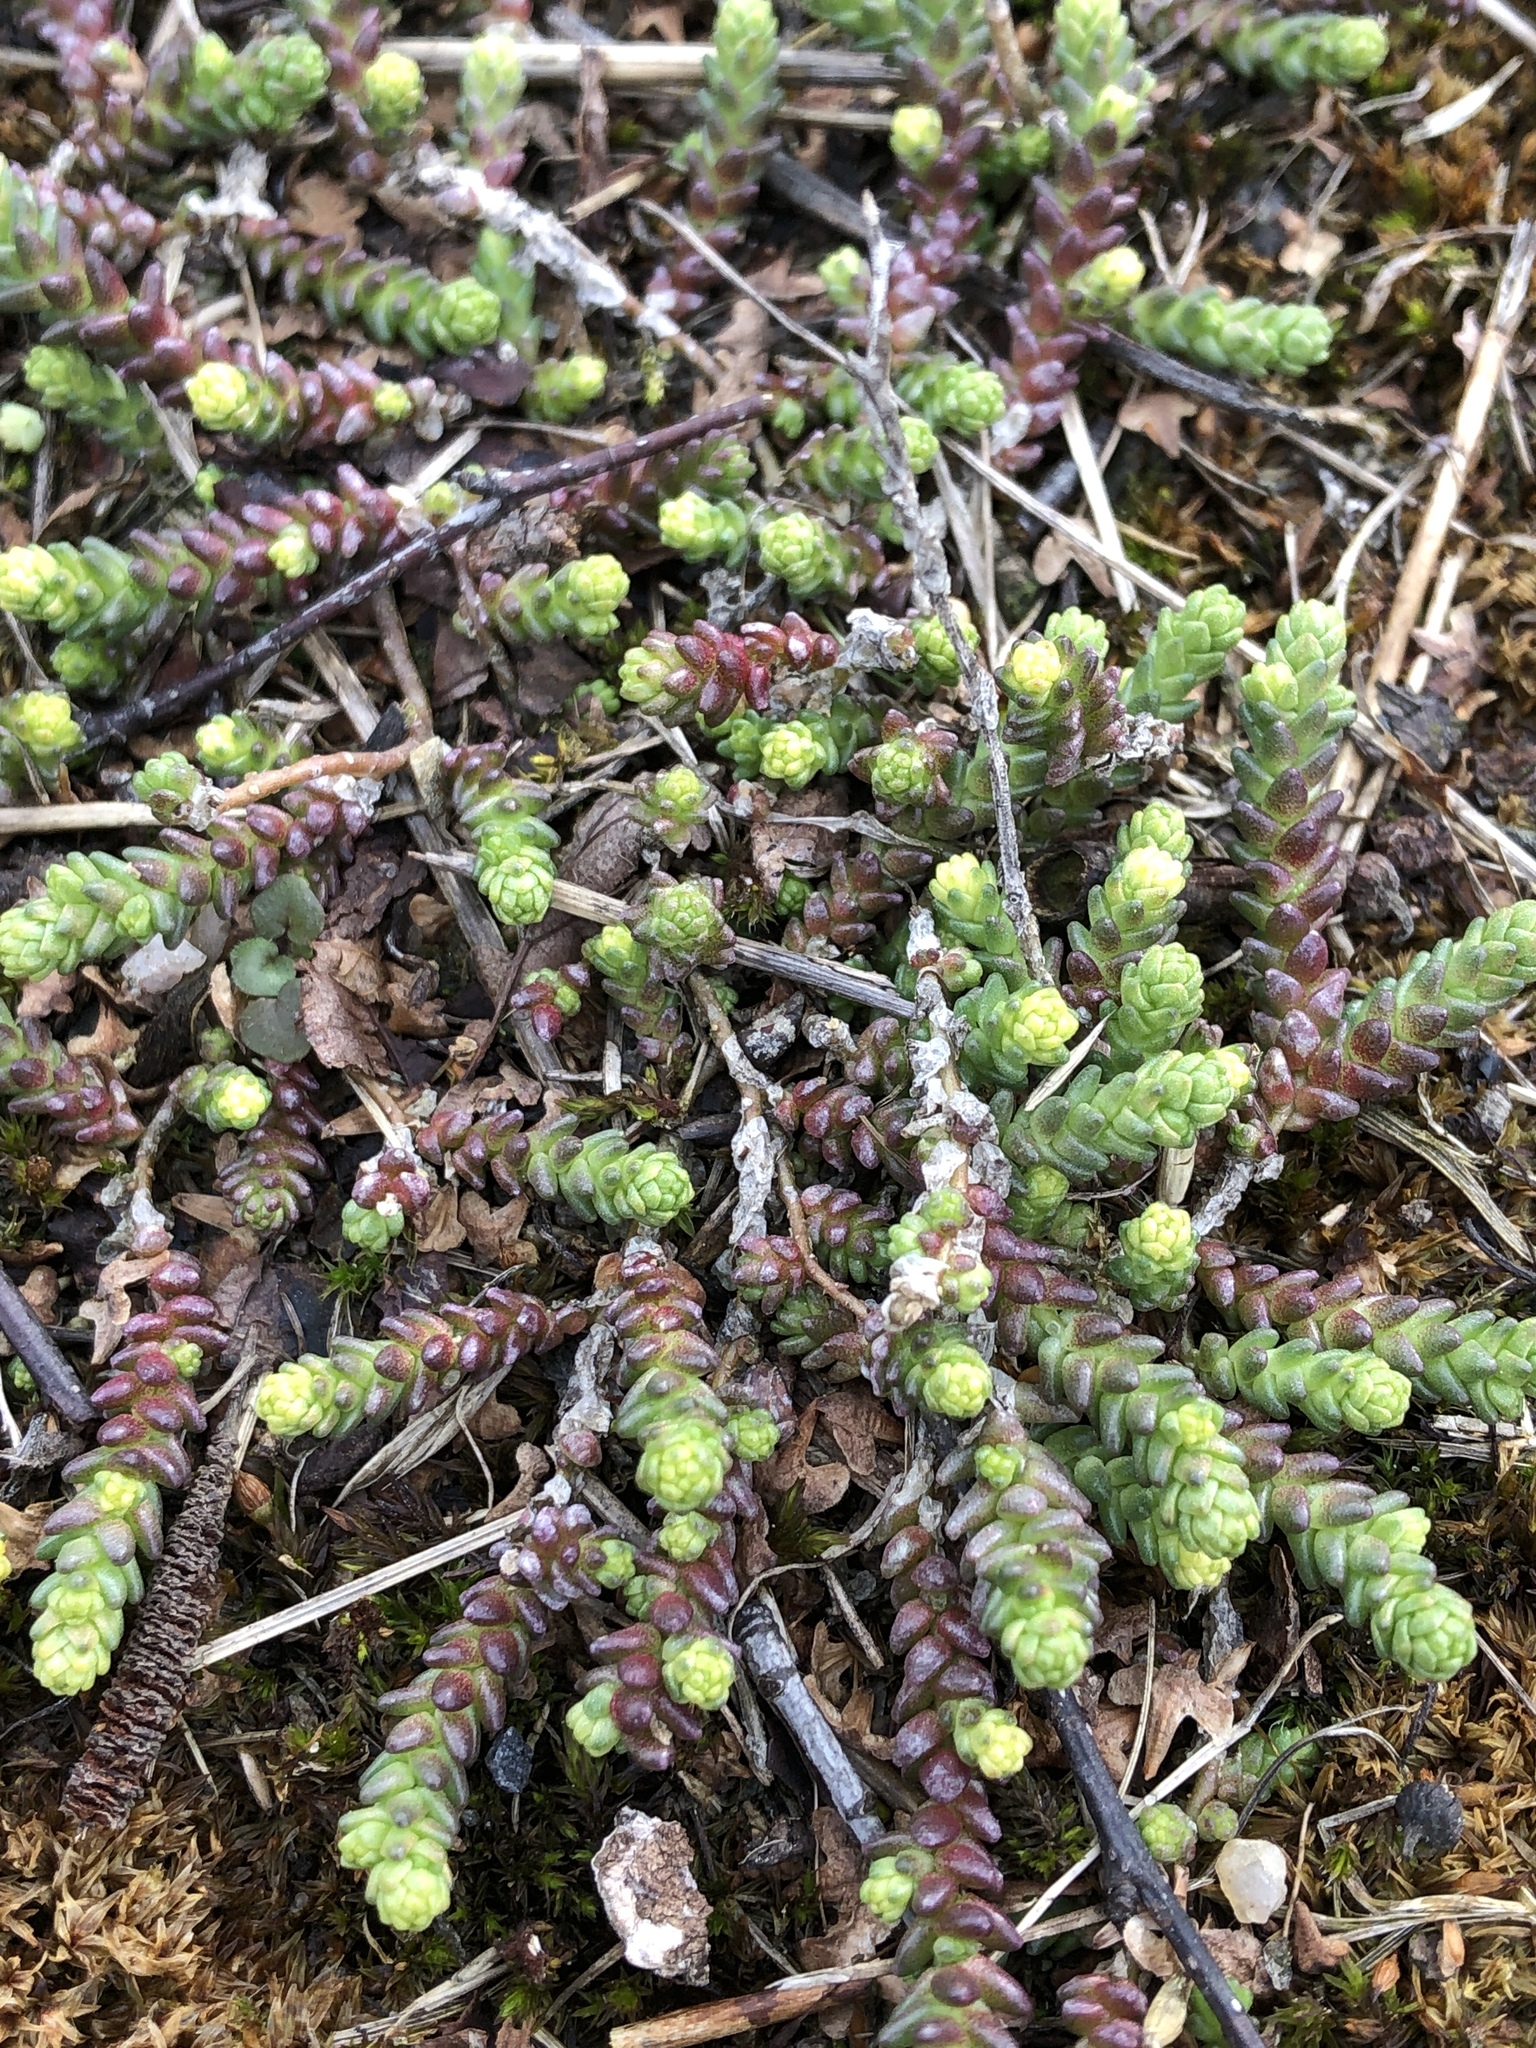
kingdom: Plantae
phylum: Tracheophyta
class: Magnoliopsida
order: Saxifragales
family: Crassulaceae
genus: Sedum
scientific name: Sedum acre
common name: Biting stonecrop
